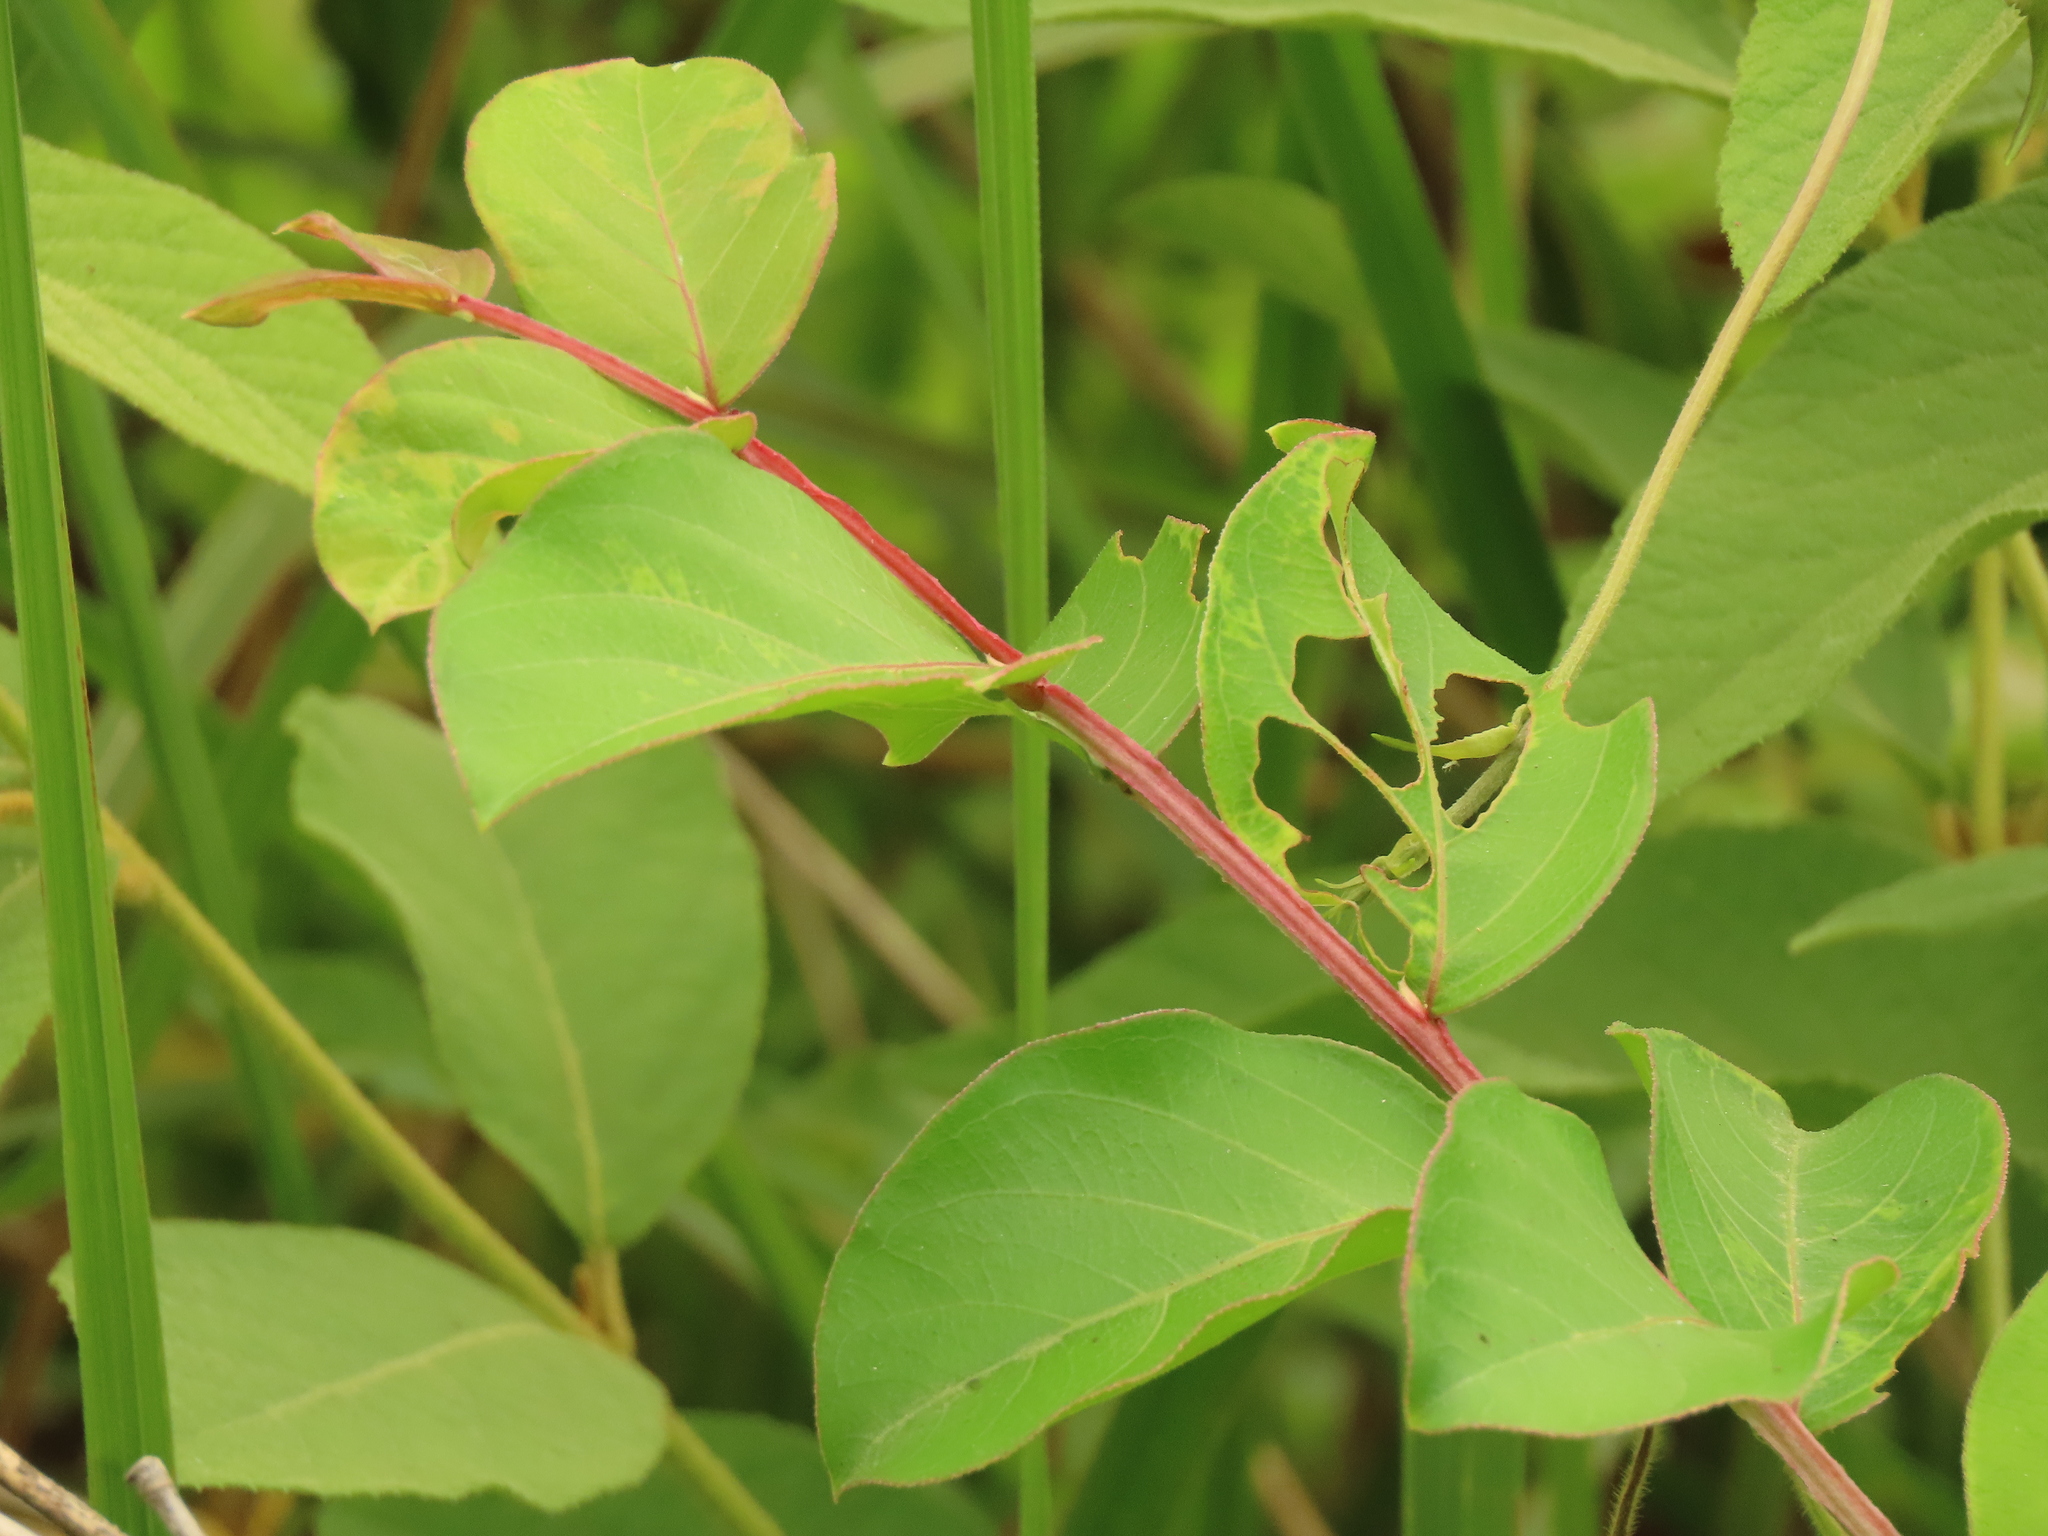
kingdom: Plantae
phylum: Tracheophyta
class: Magnoliopsida
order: Myrtales
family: Lythraceae
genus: Lagerstroemia
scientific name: Lagerstroemia subcostata
